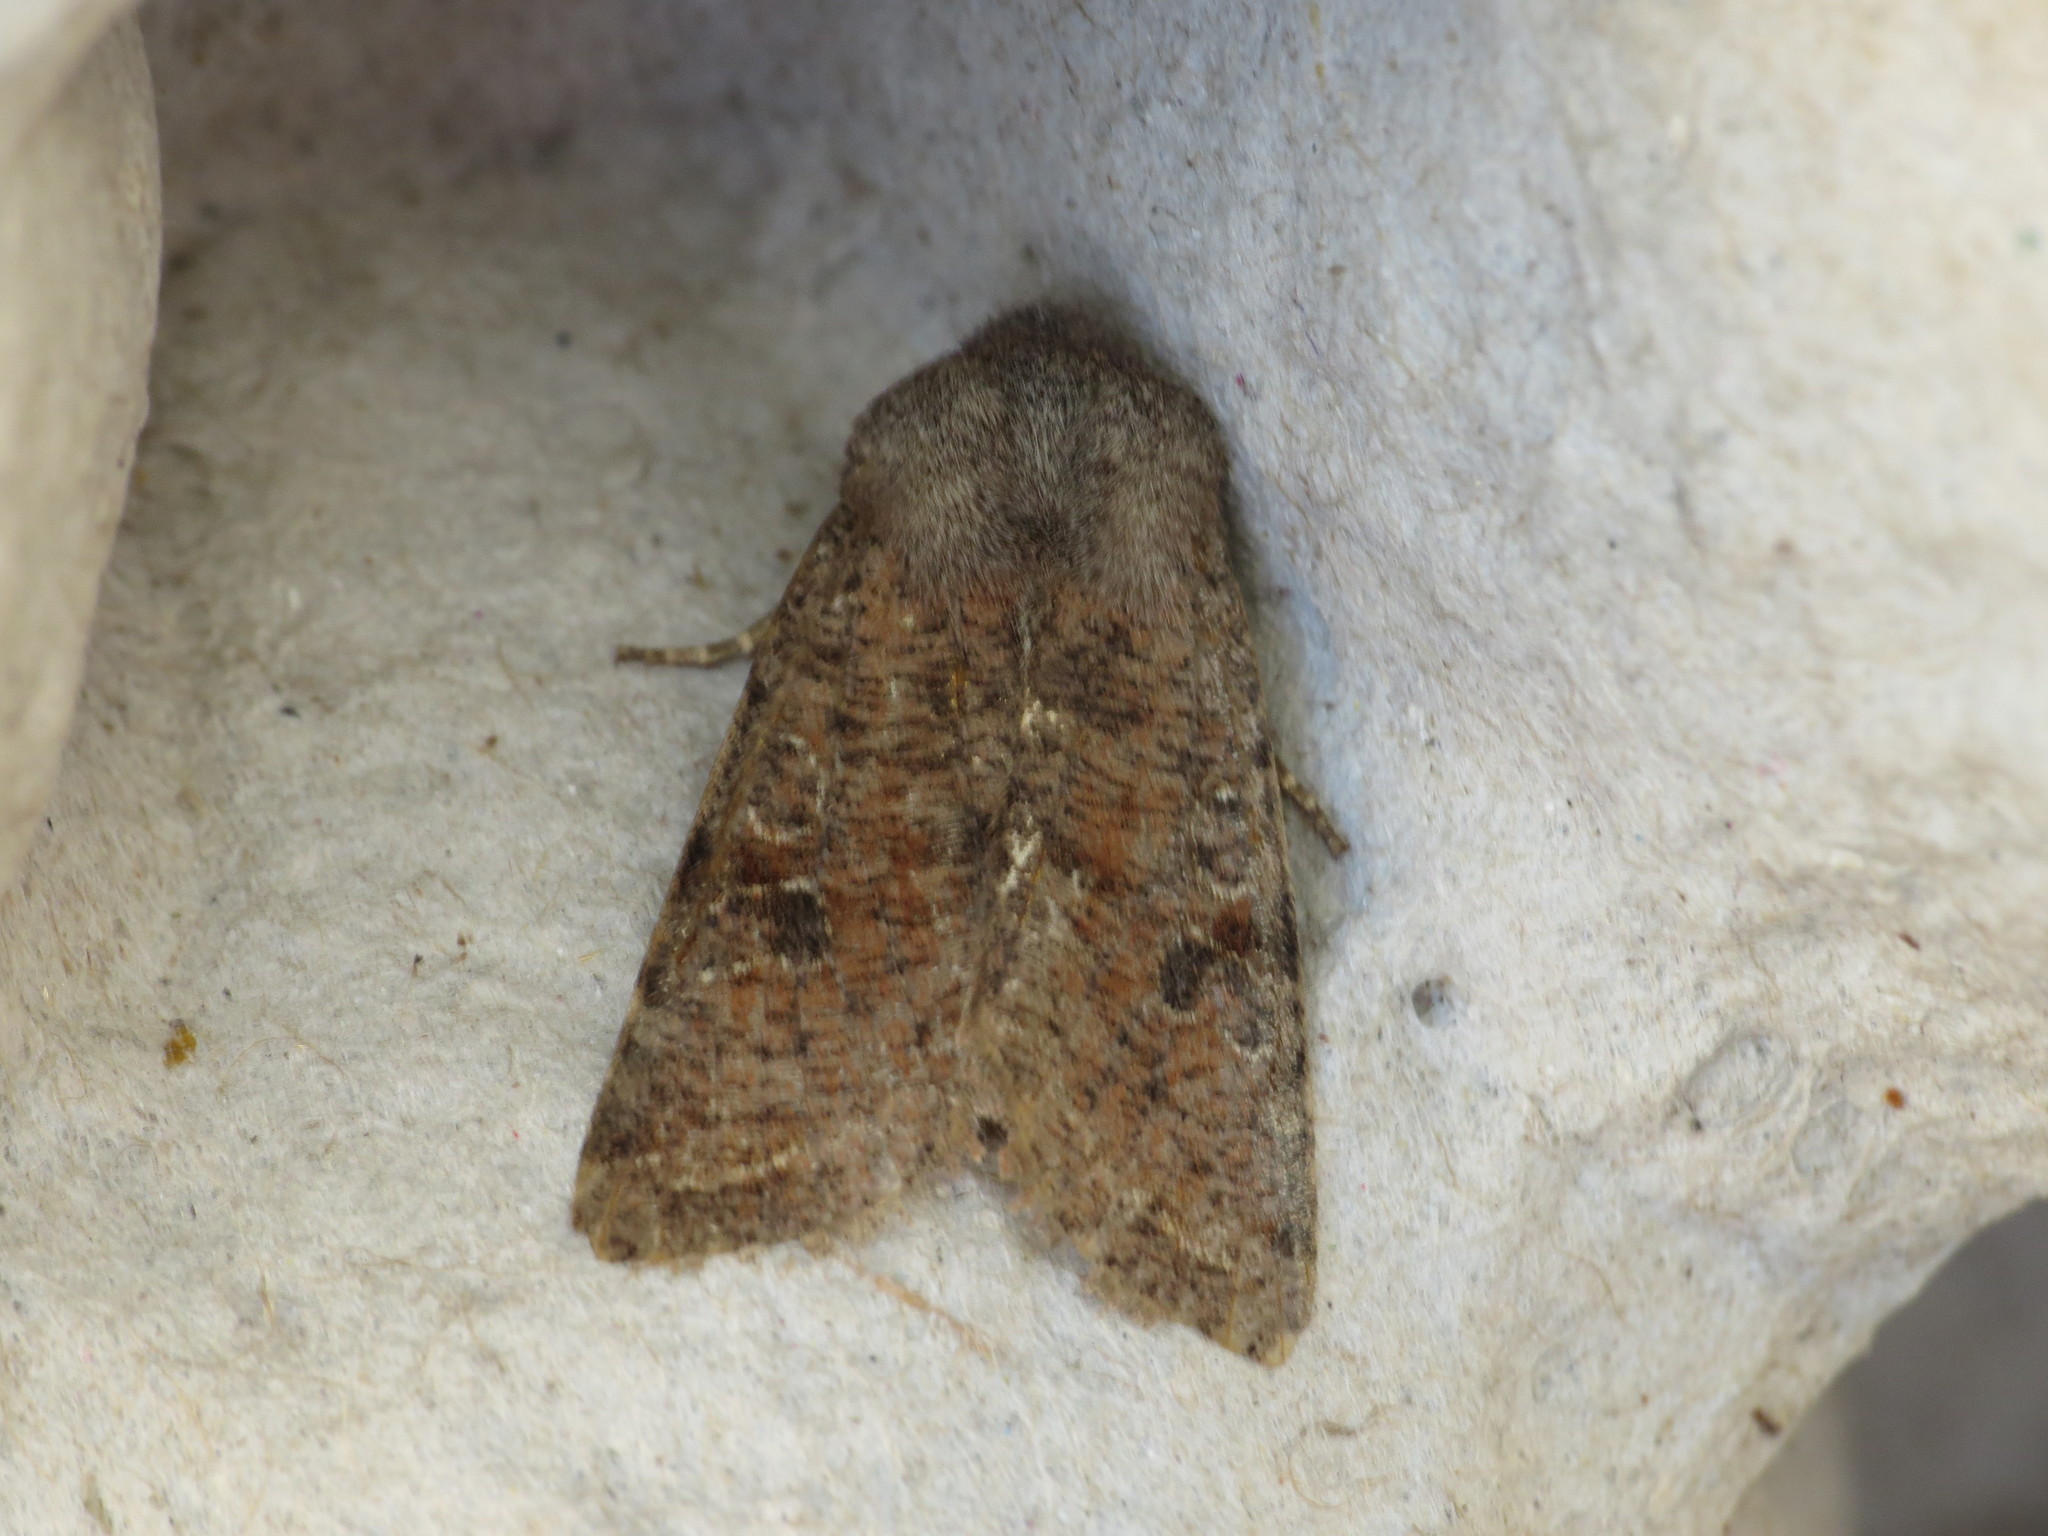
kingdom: Animalia
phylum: Arthropoda
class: Insecta
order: Lepidoptera
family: Noctuidae
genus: Orthosia
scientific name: Orthosia incerta
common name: Clouded drab
